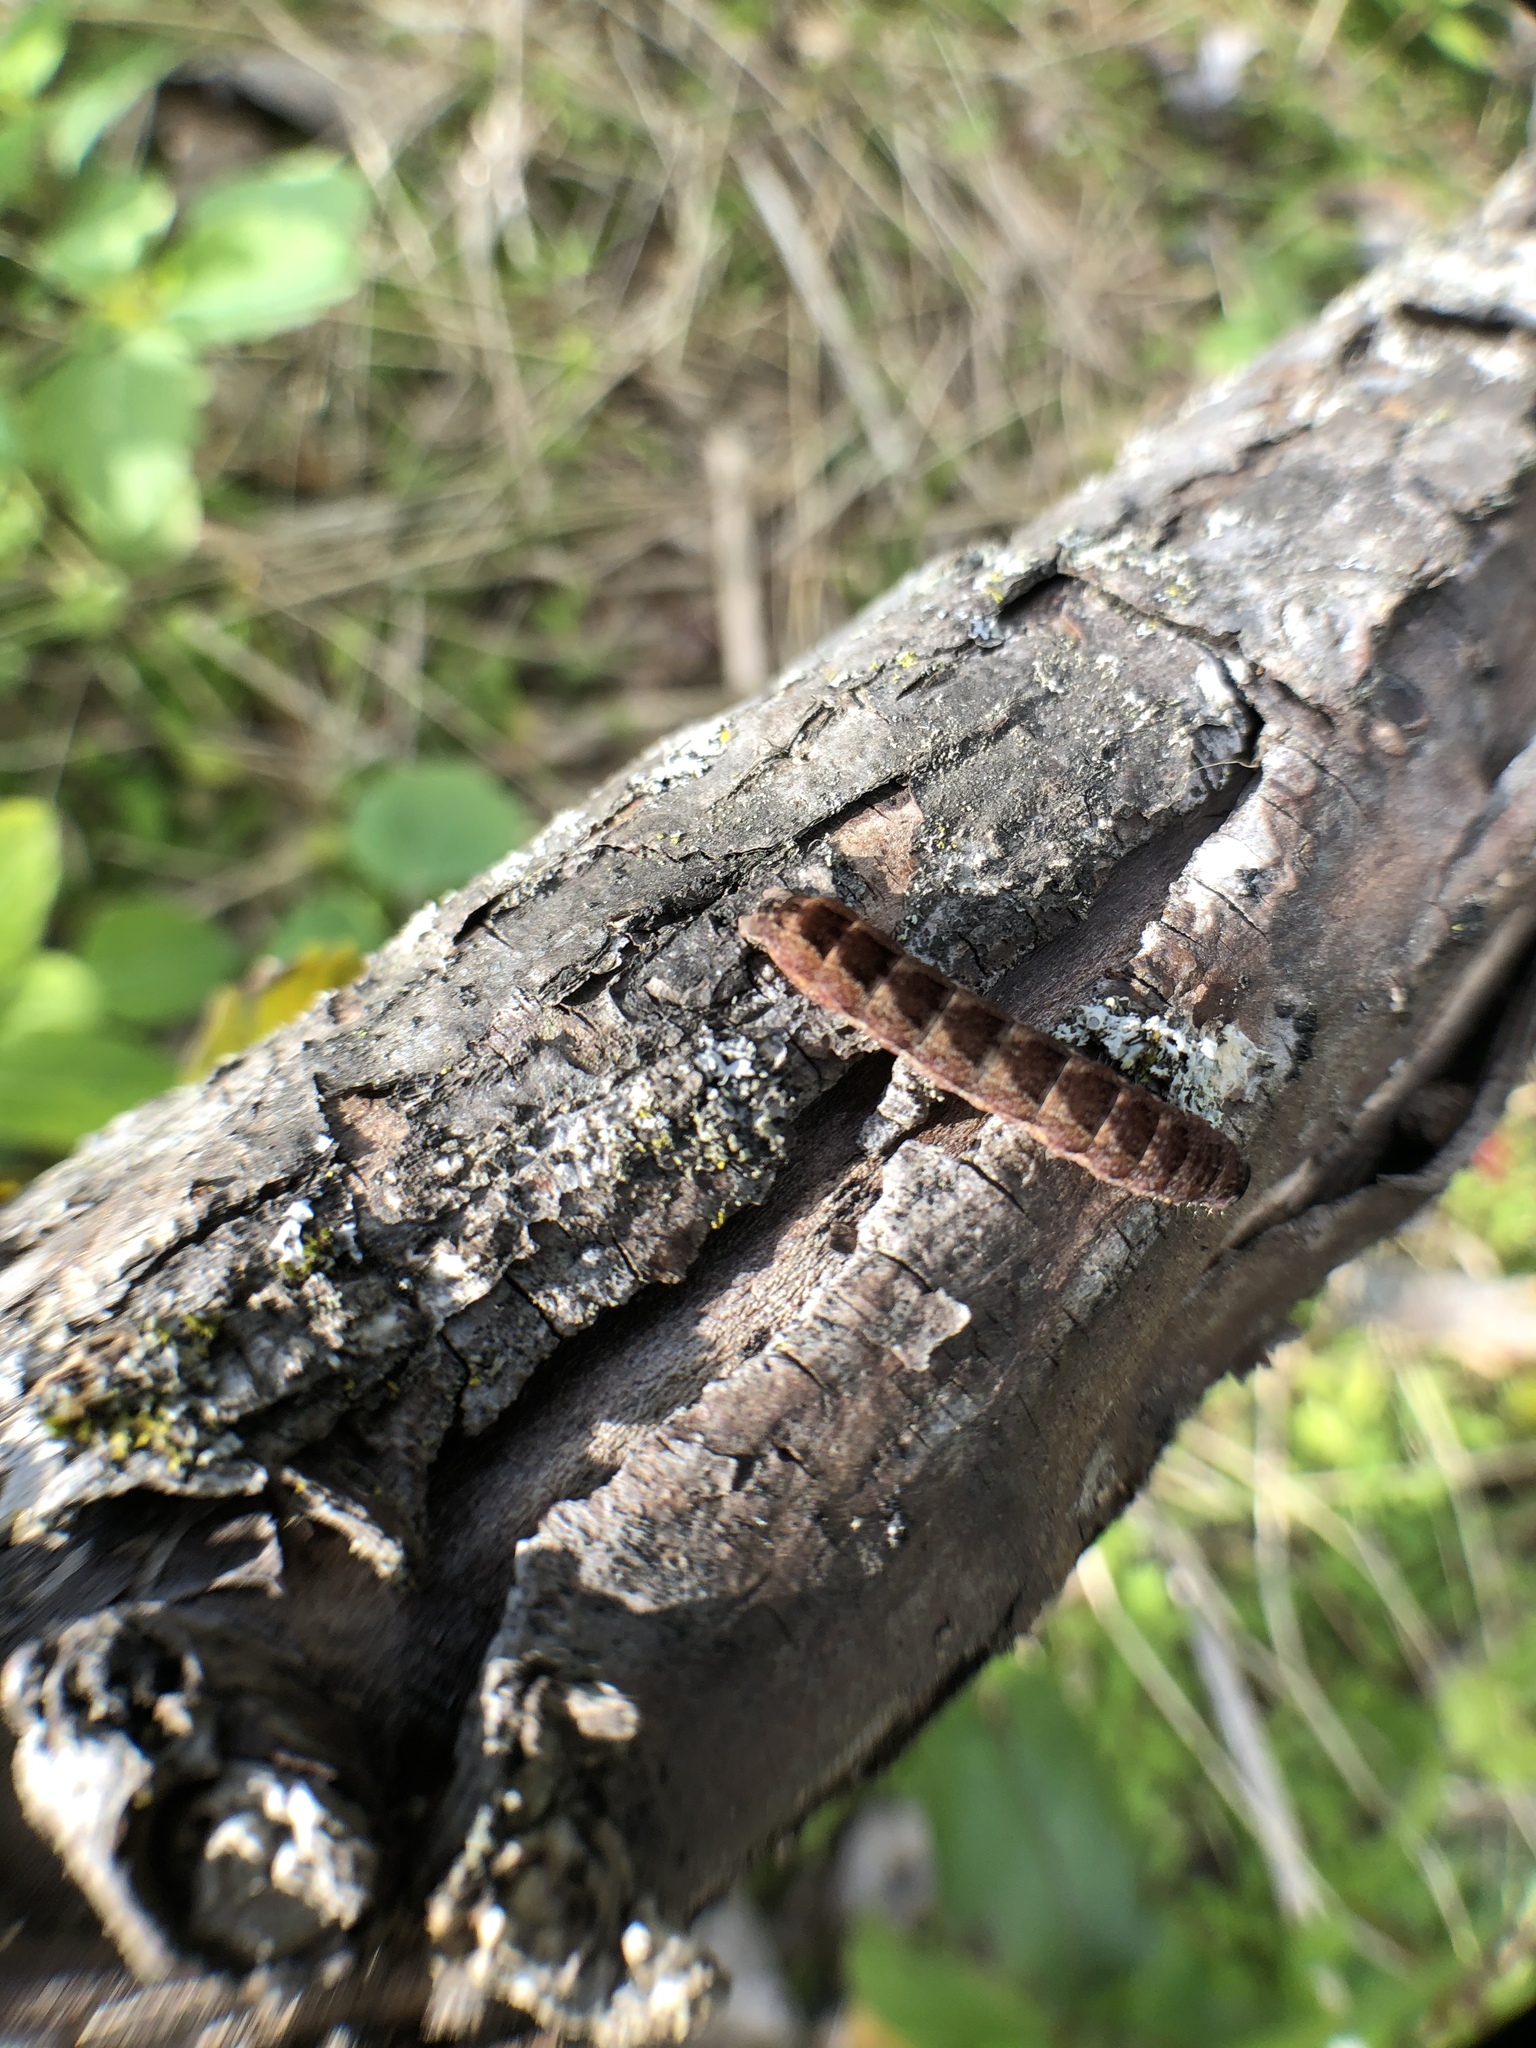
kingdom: Animalia
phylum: Arthropoda
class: Insecta
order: Lepidoptera
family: Noctuidae
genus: Agrochola
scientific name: Agrochola bicolorago
